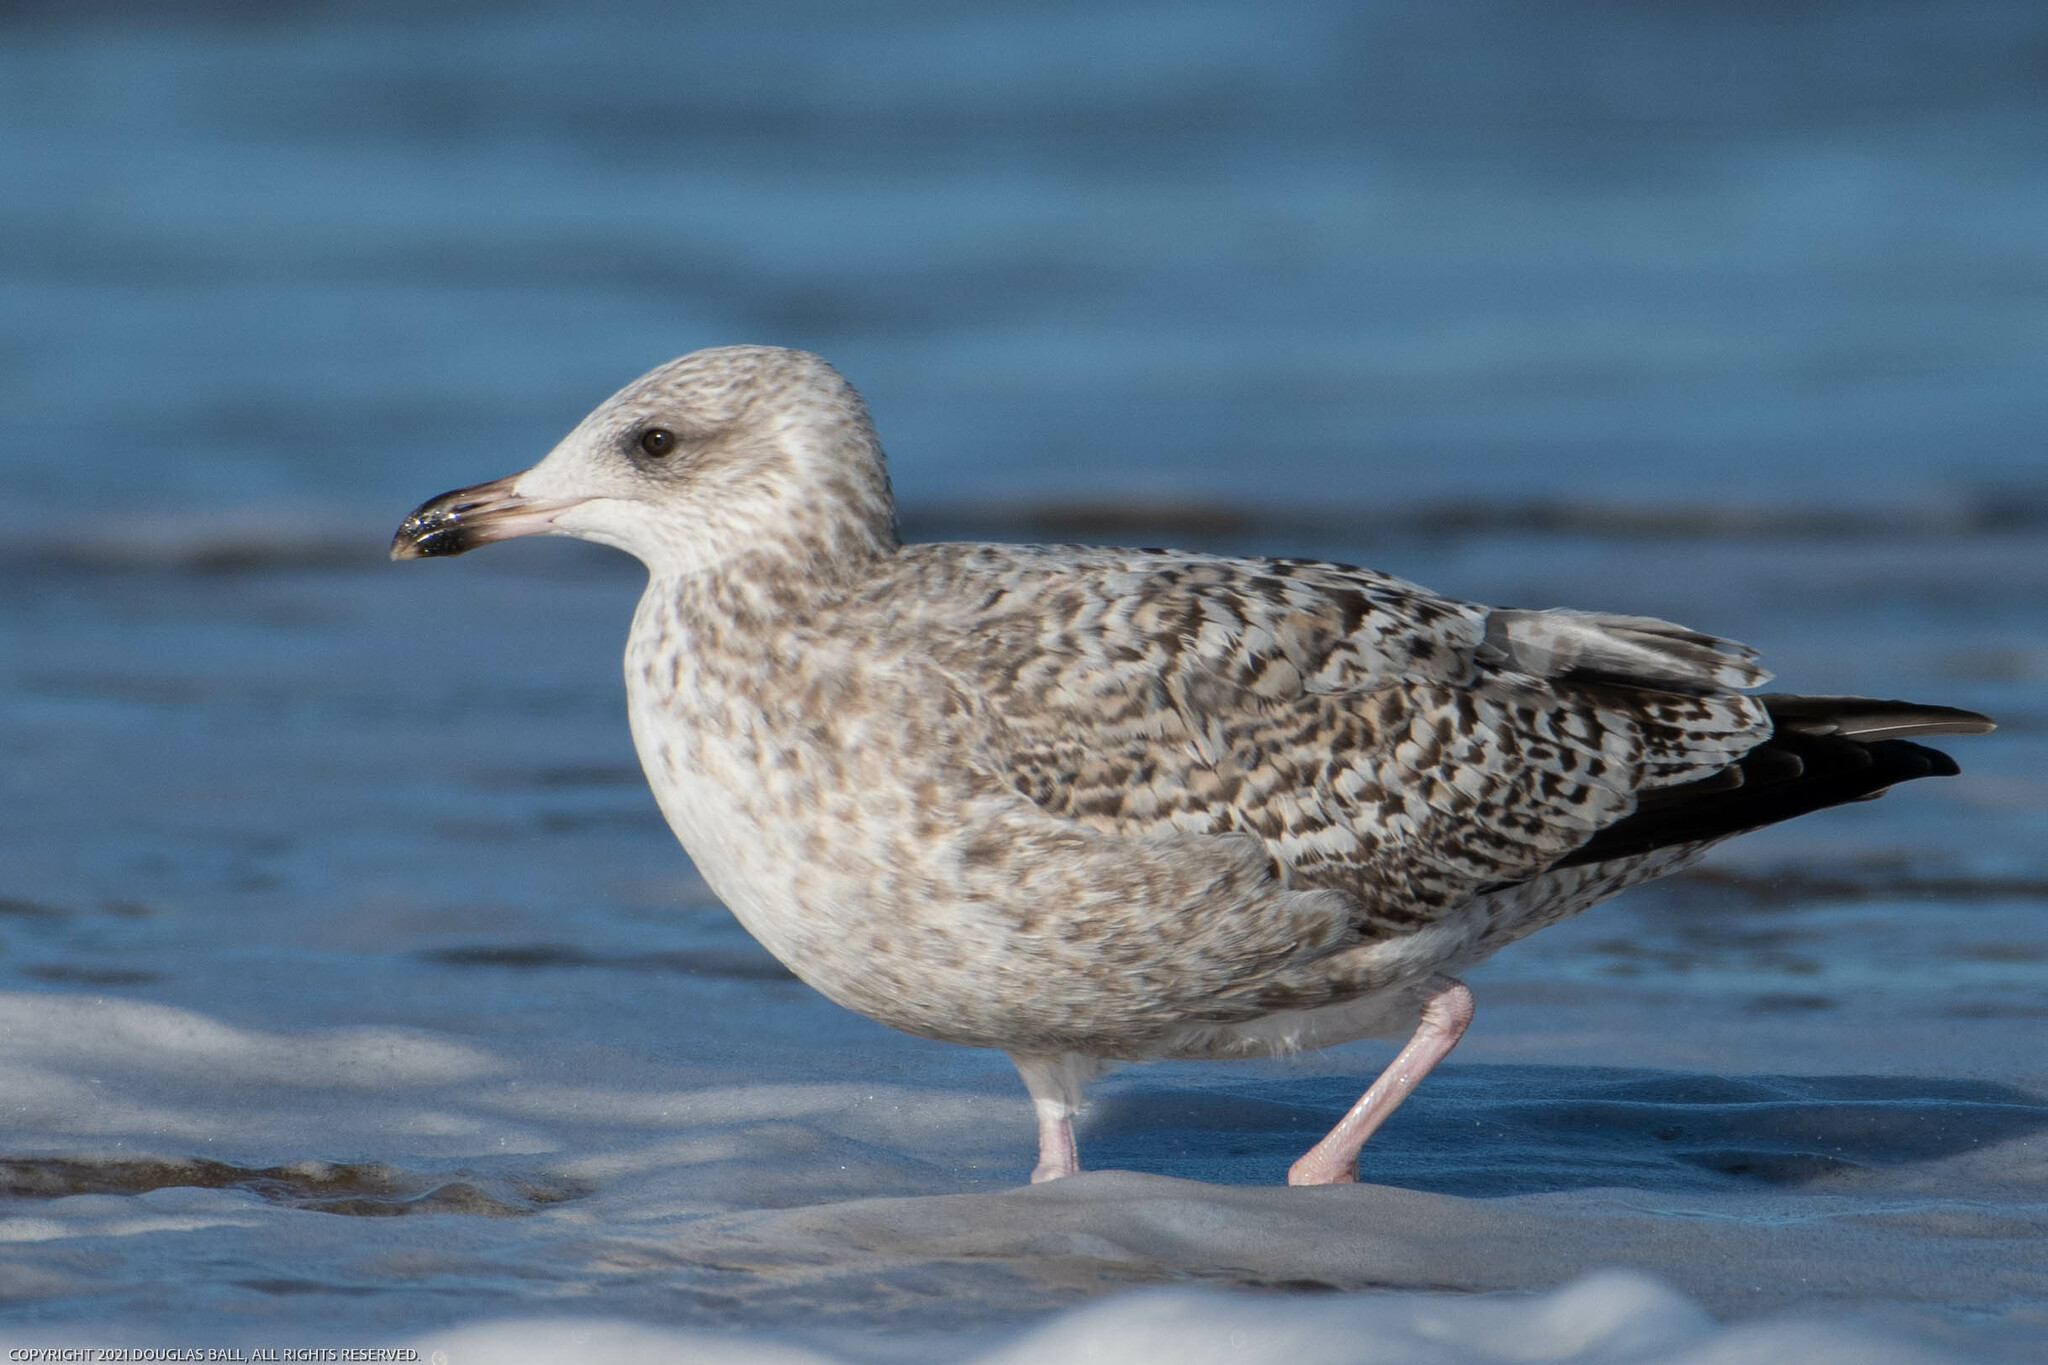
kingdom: Animalia
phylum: Chordata
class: Aves
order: Charadriiformes
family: Laridae
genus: Larus
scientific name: Larus argentatus
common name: Herring gull
